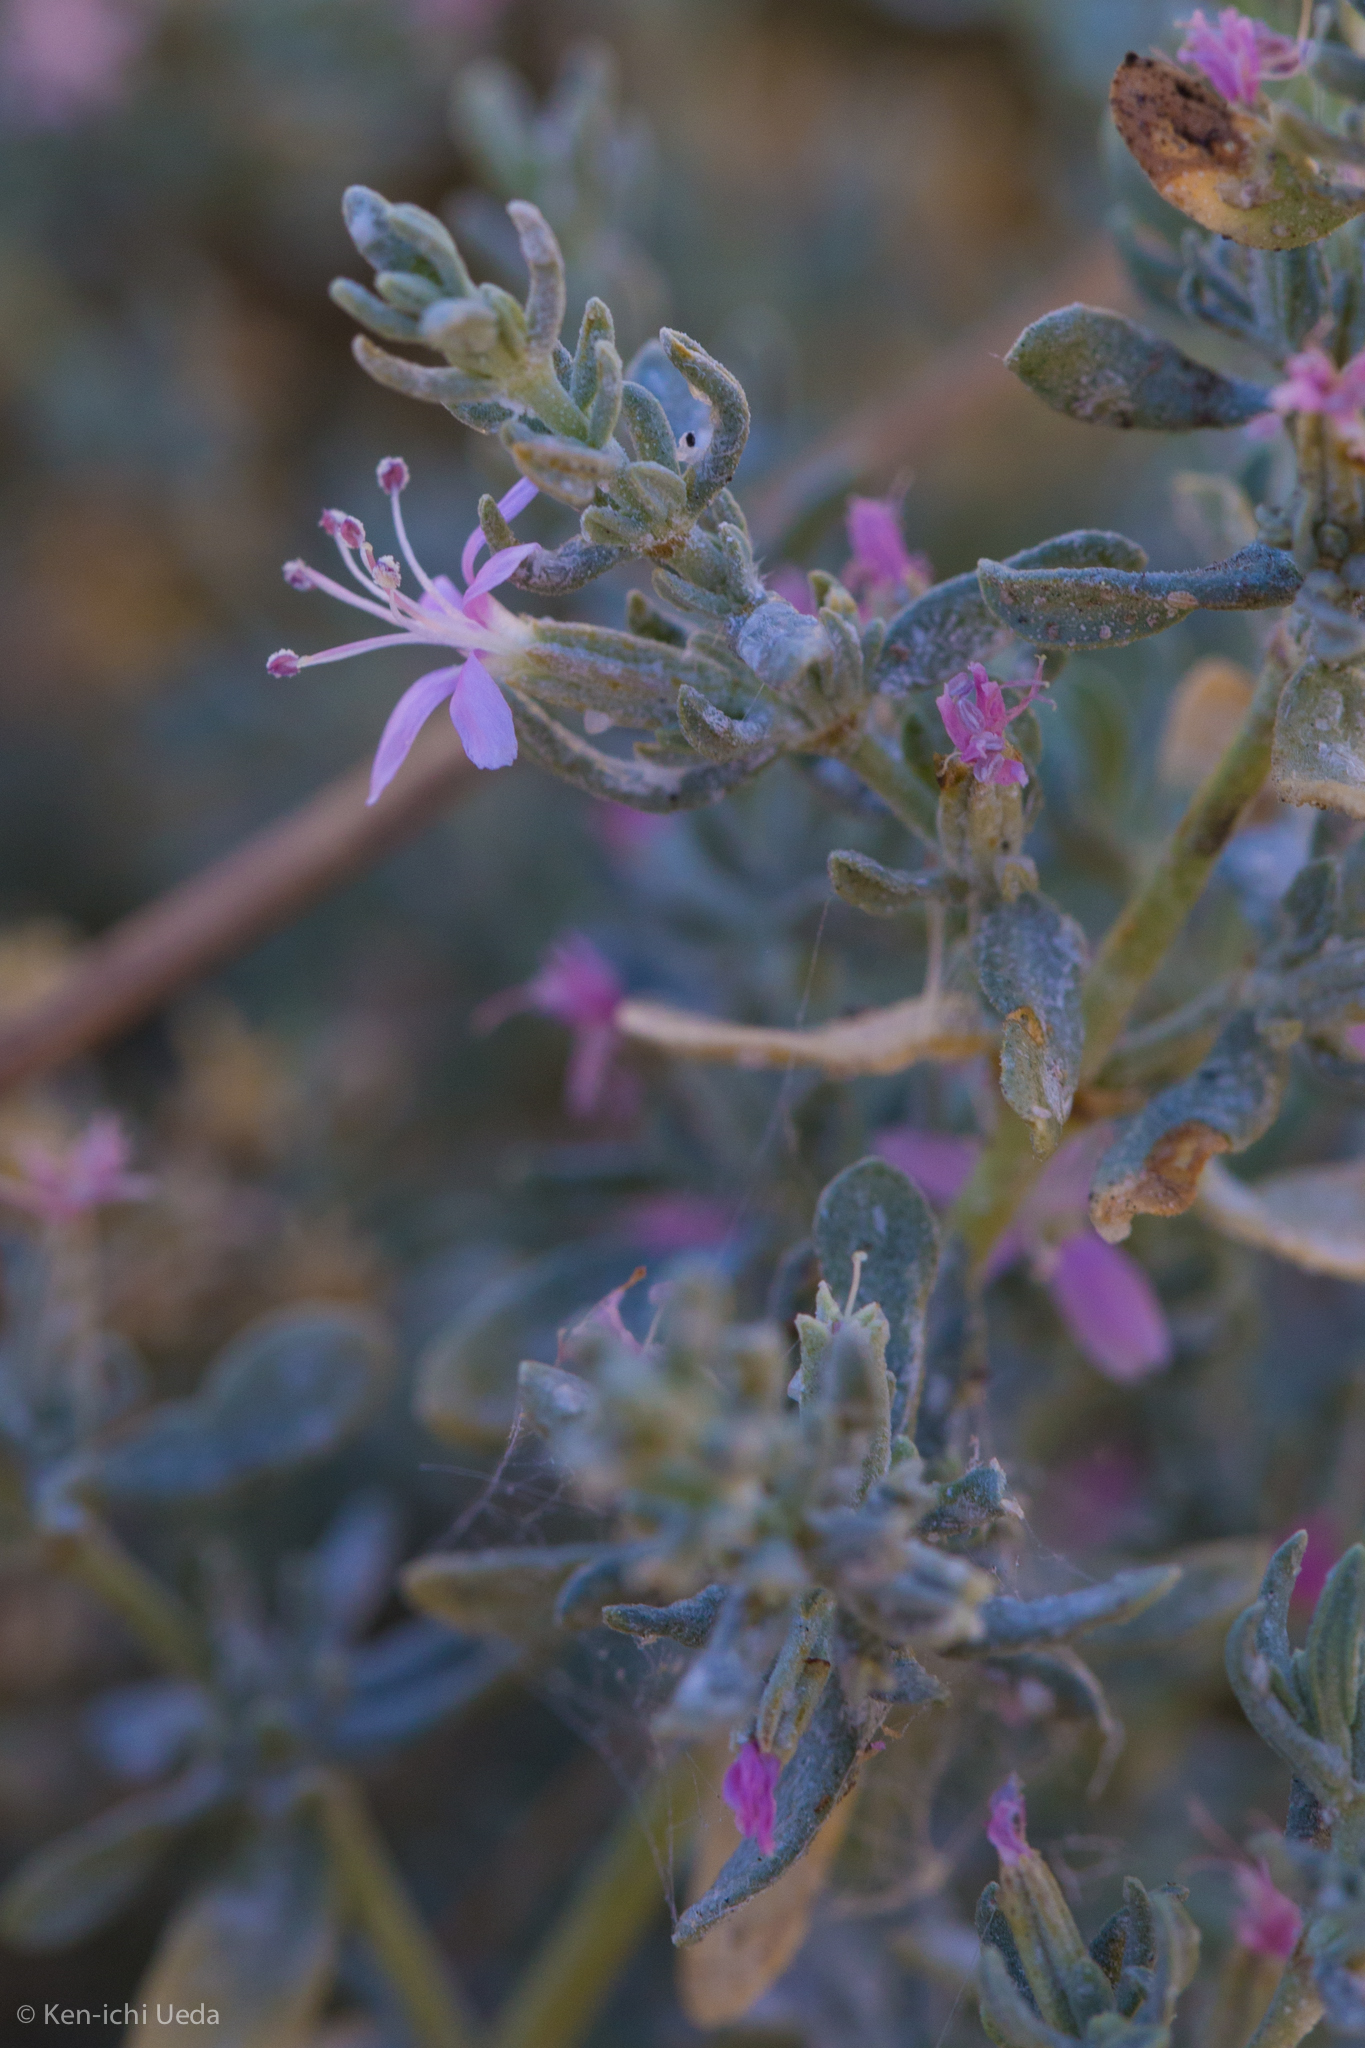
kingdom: Plantae
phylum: Tracheophyta
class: Magnoliopsida
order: Caryophyllales
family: Frankeniaceae
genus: Frankenia
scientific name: Frankenia salina
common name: Alkali seaheath
